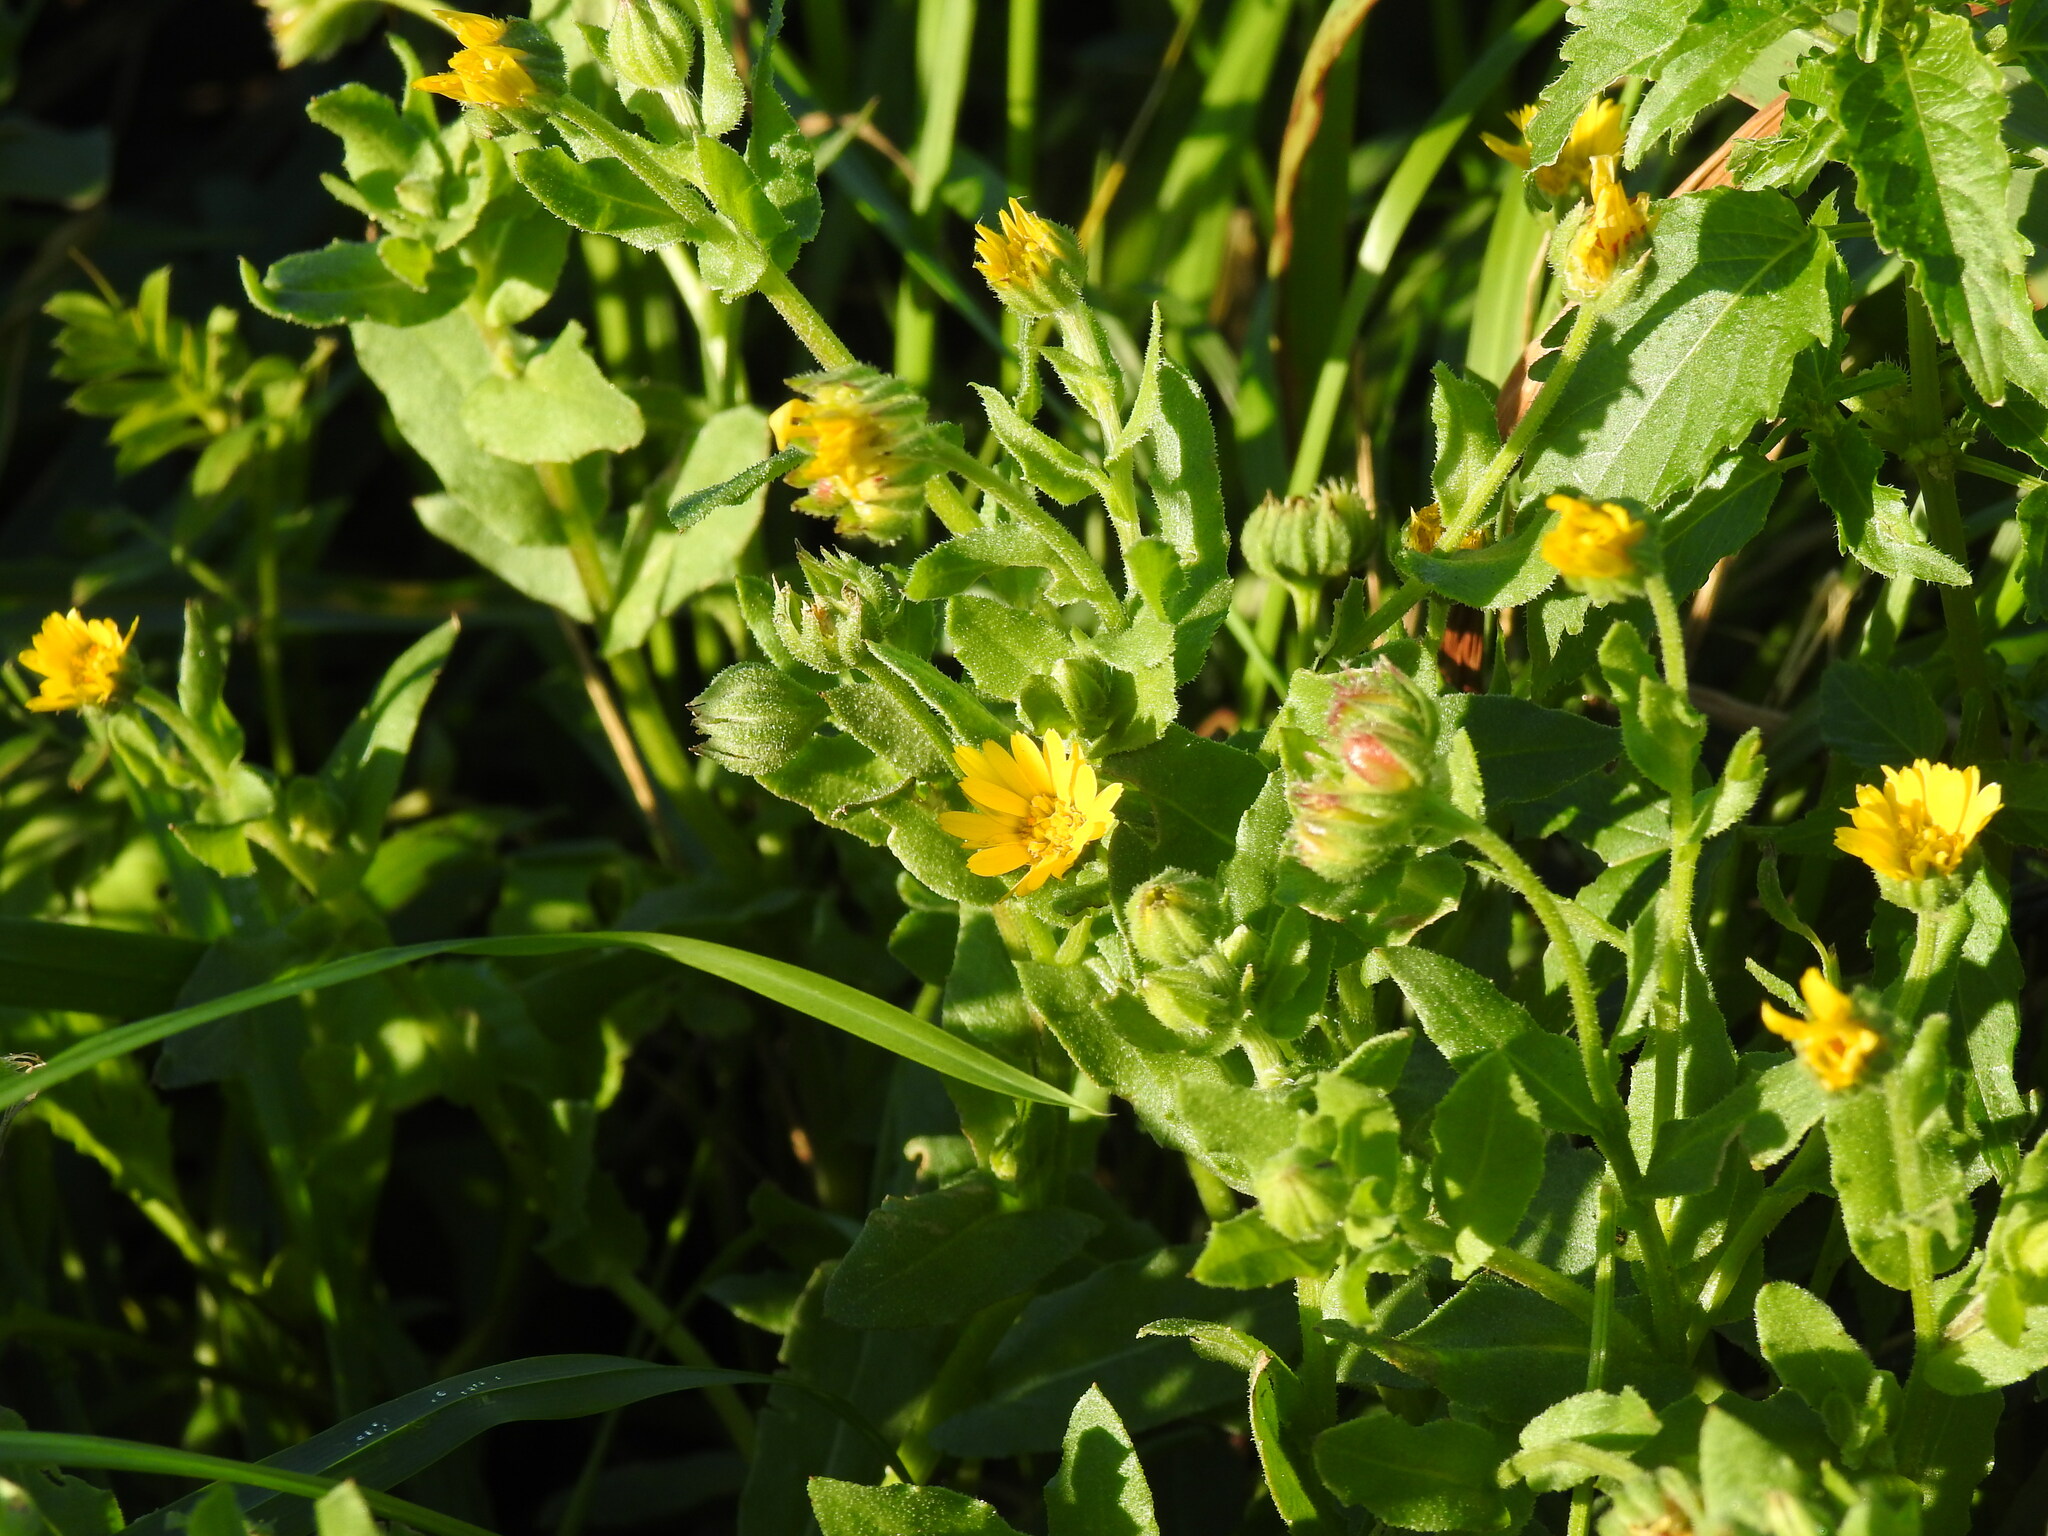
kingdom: Plantae
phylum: Tracheophyta
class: Magnoliopsida
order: Asterales
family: Asteraceae
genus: Calendula
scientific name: Calendula arvensis
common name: Field marigold
